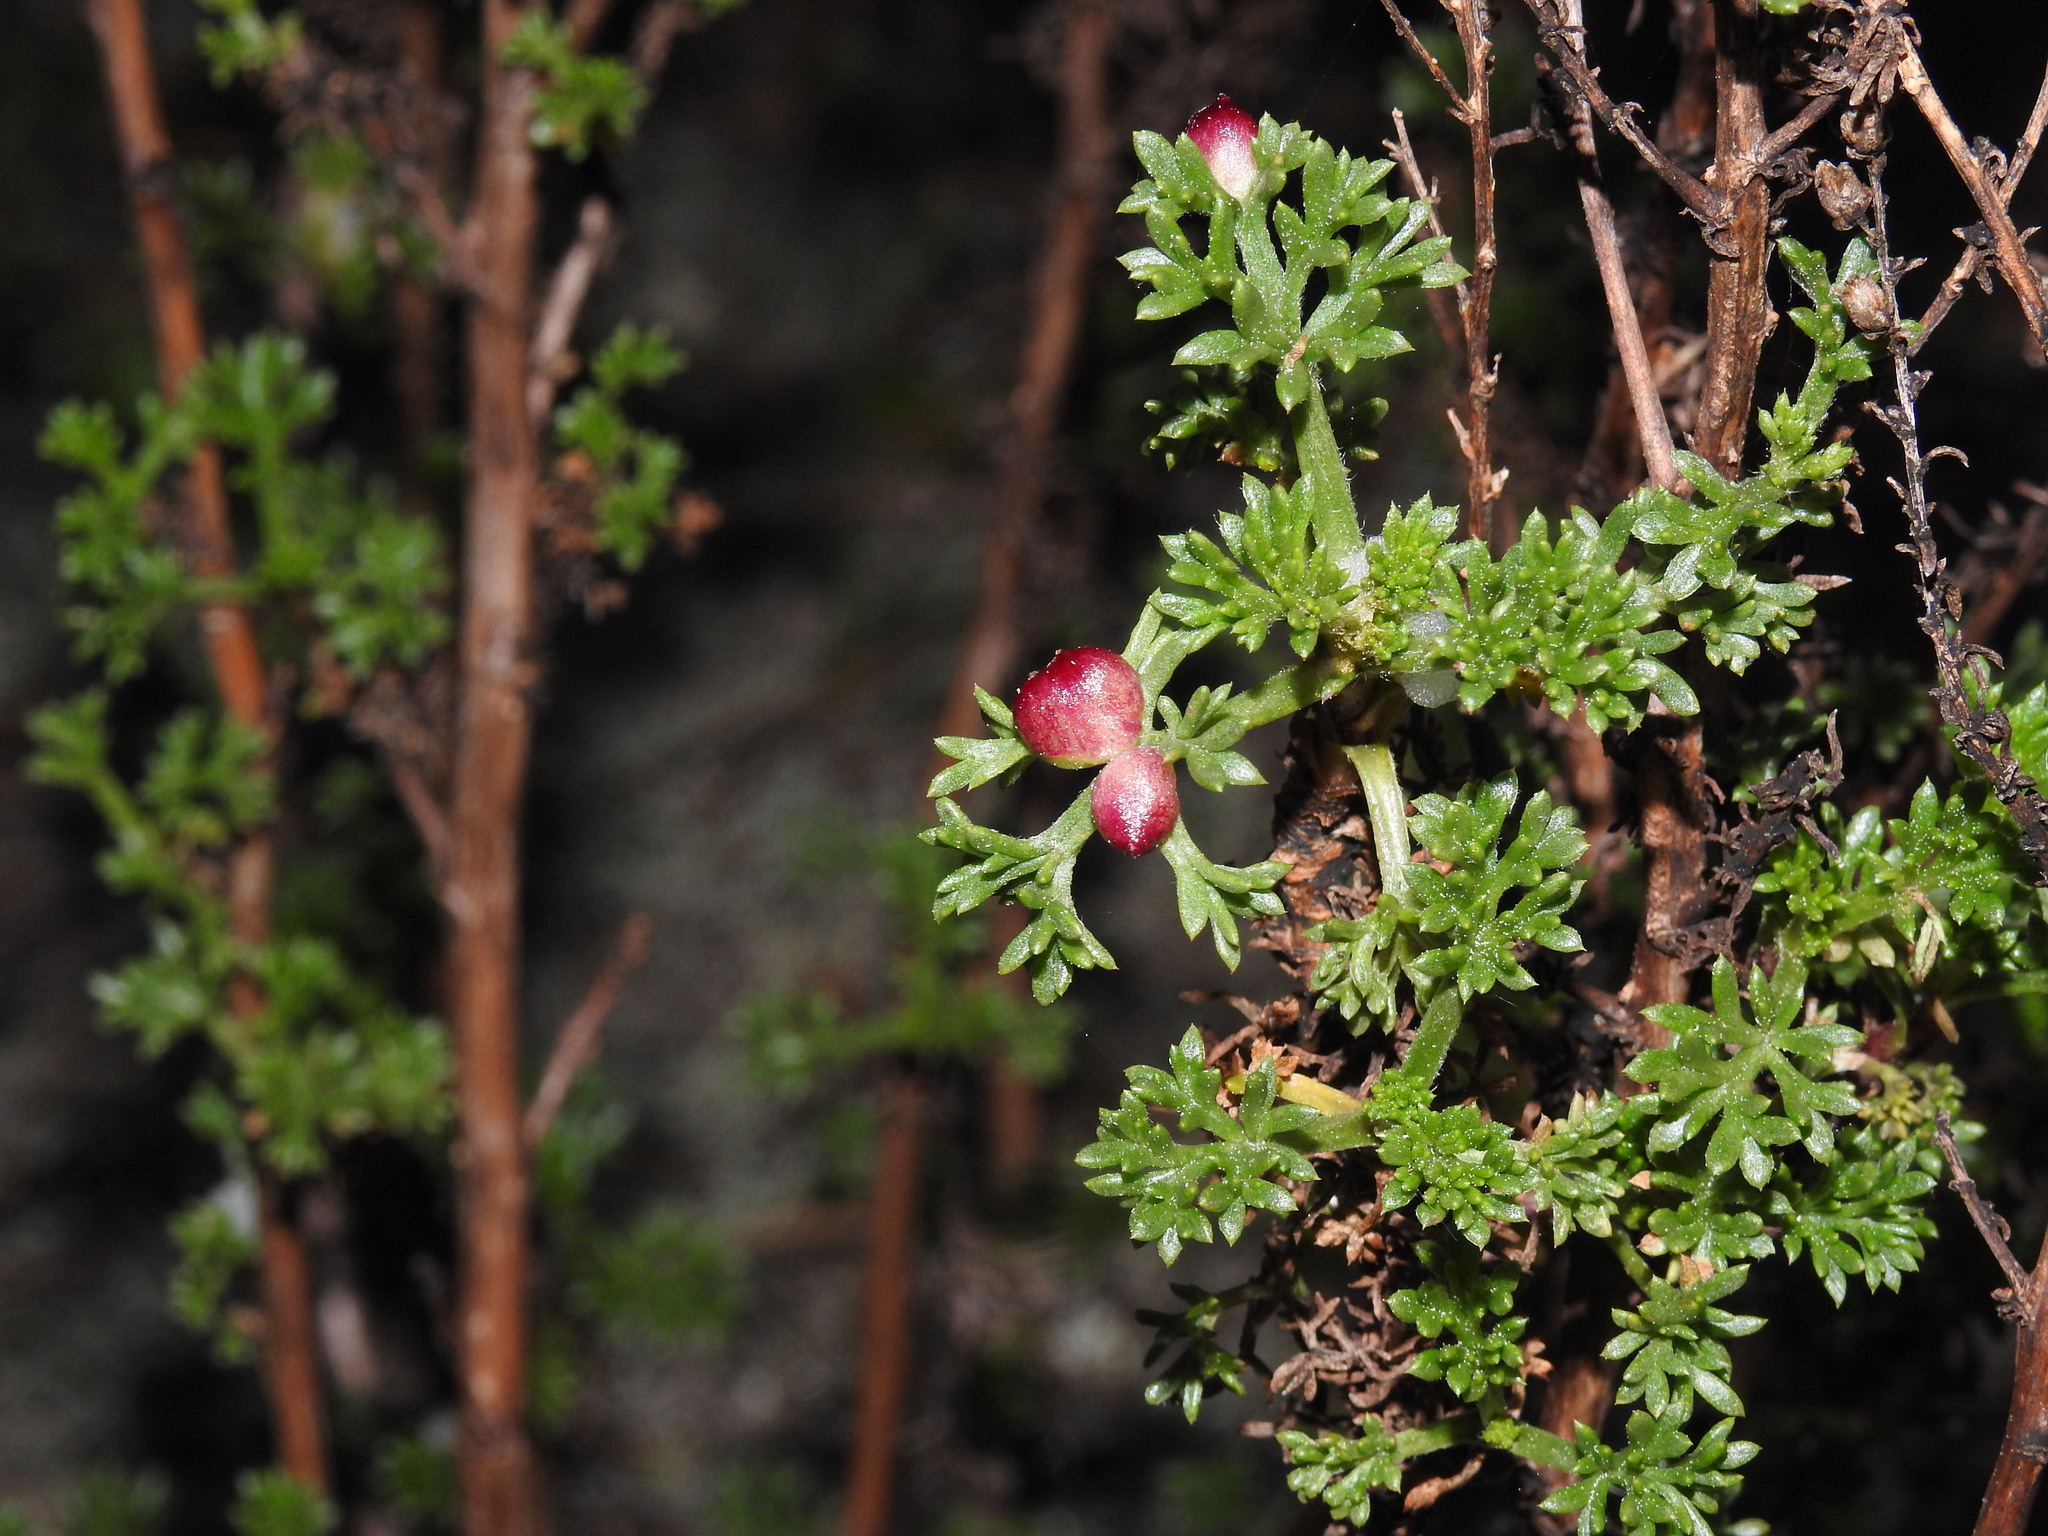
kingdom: Animalia
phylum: Arthropoda
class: Insecta
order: Diptera
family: Cecidomyiidae
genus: Rhopalomyia
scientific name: Rhopalomyia baccarum
